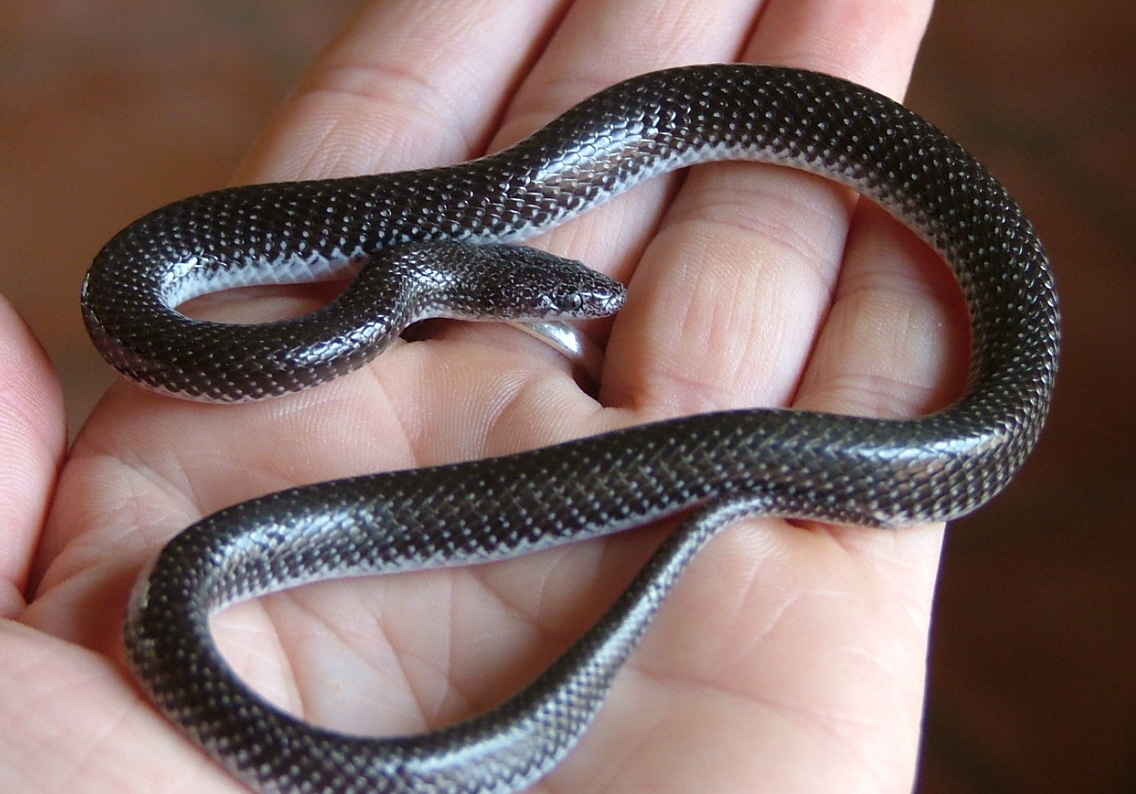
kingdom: Animalia
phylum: Chordata
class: Squamata
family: Lamprophiidae
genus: Lycophidion
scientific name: Lycophidion capense
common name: Cape wolf snake
